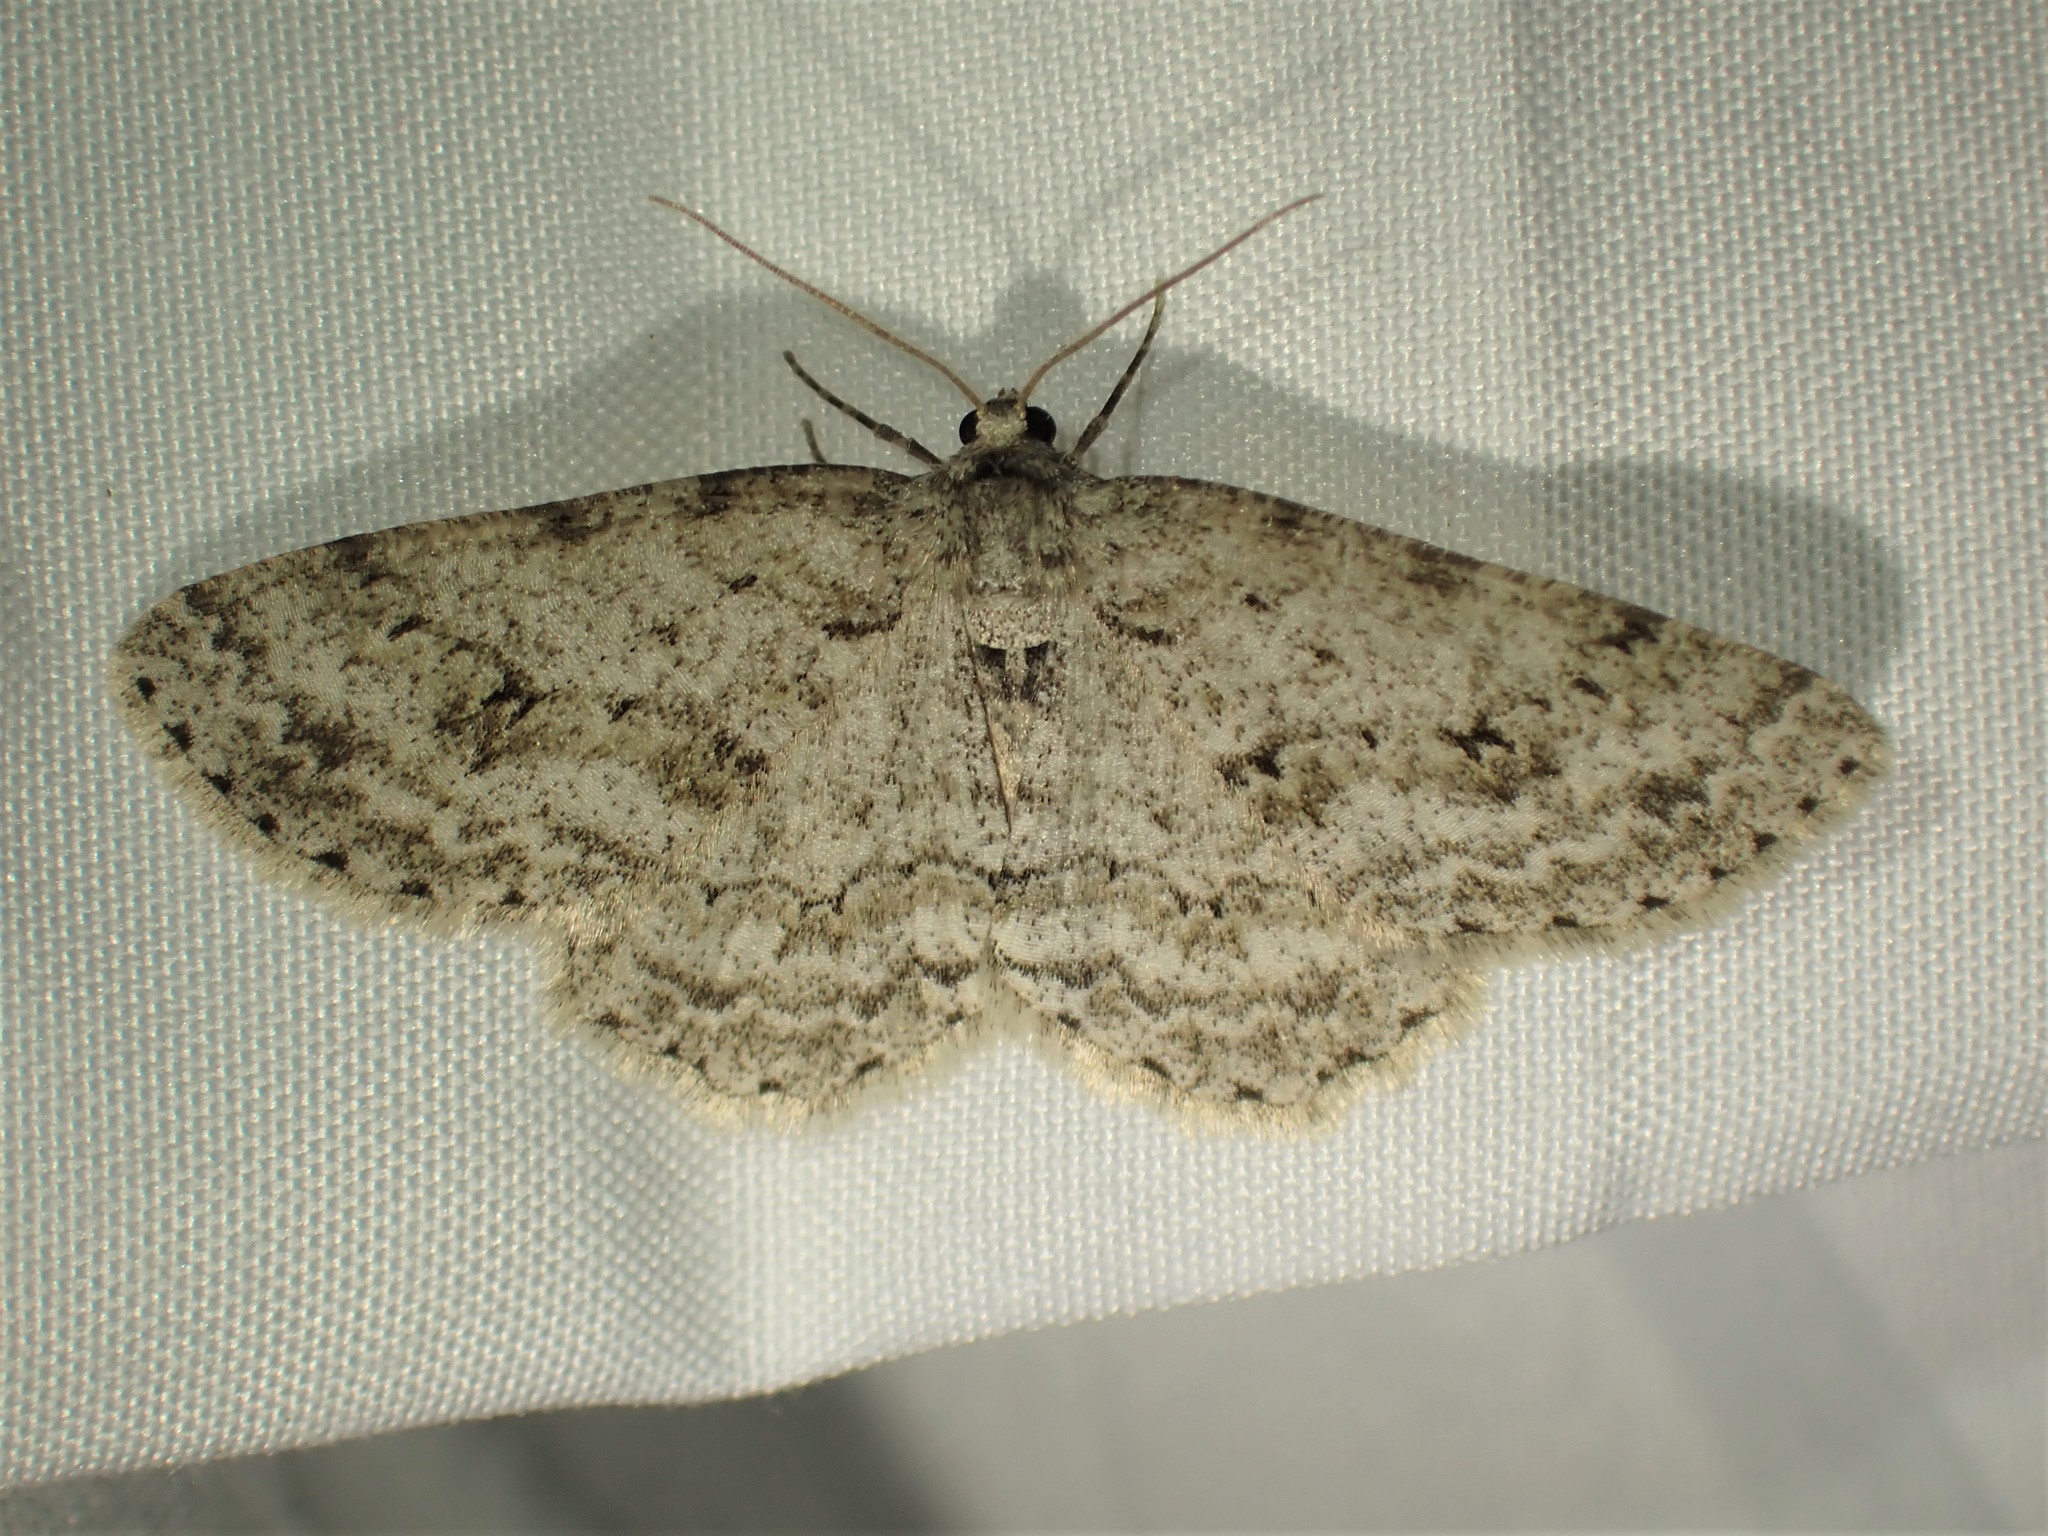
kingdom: Animalia
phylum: Arthropoda
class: Insecta
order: Lepidoptera
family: Geometridae
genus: Ectropis
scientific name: Ectropis crepuscularia
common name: Engrailed
